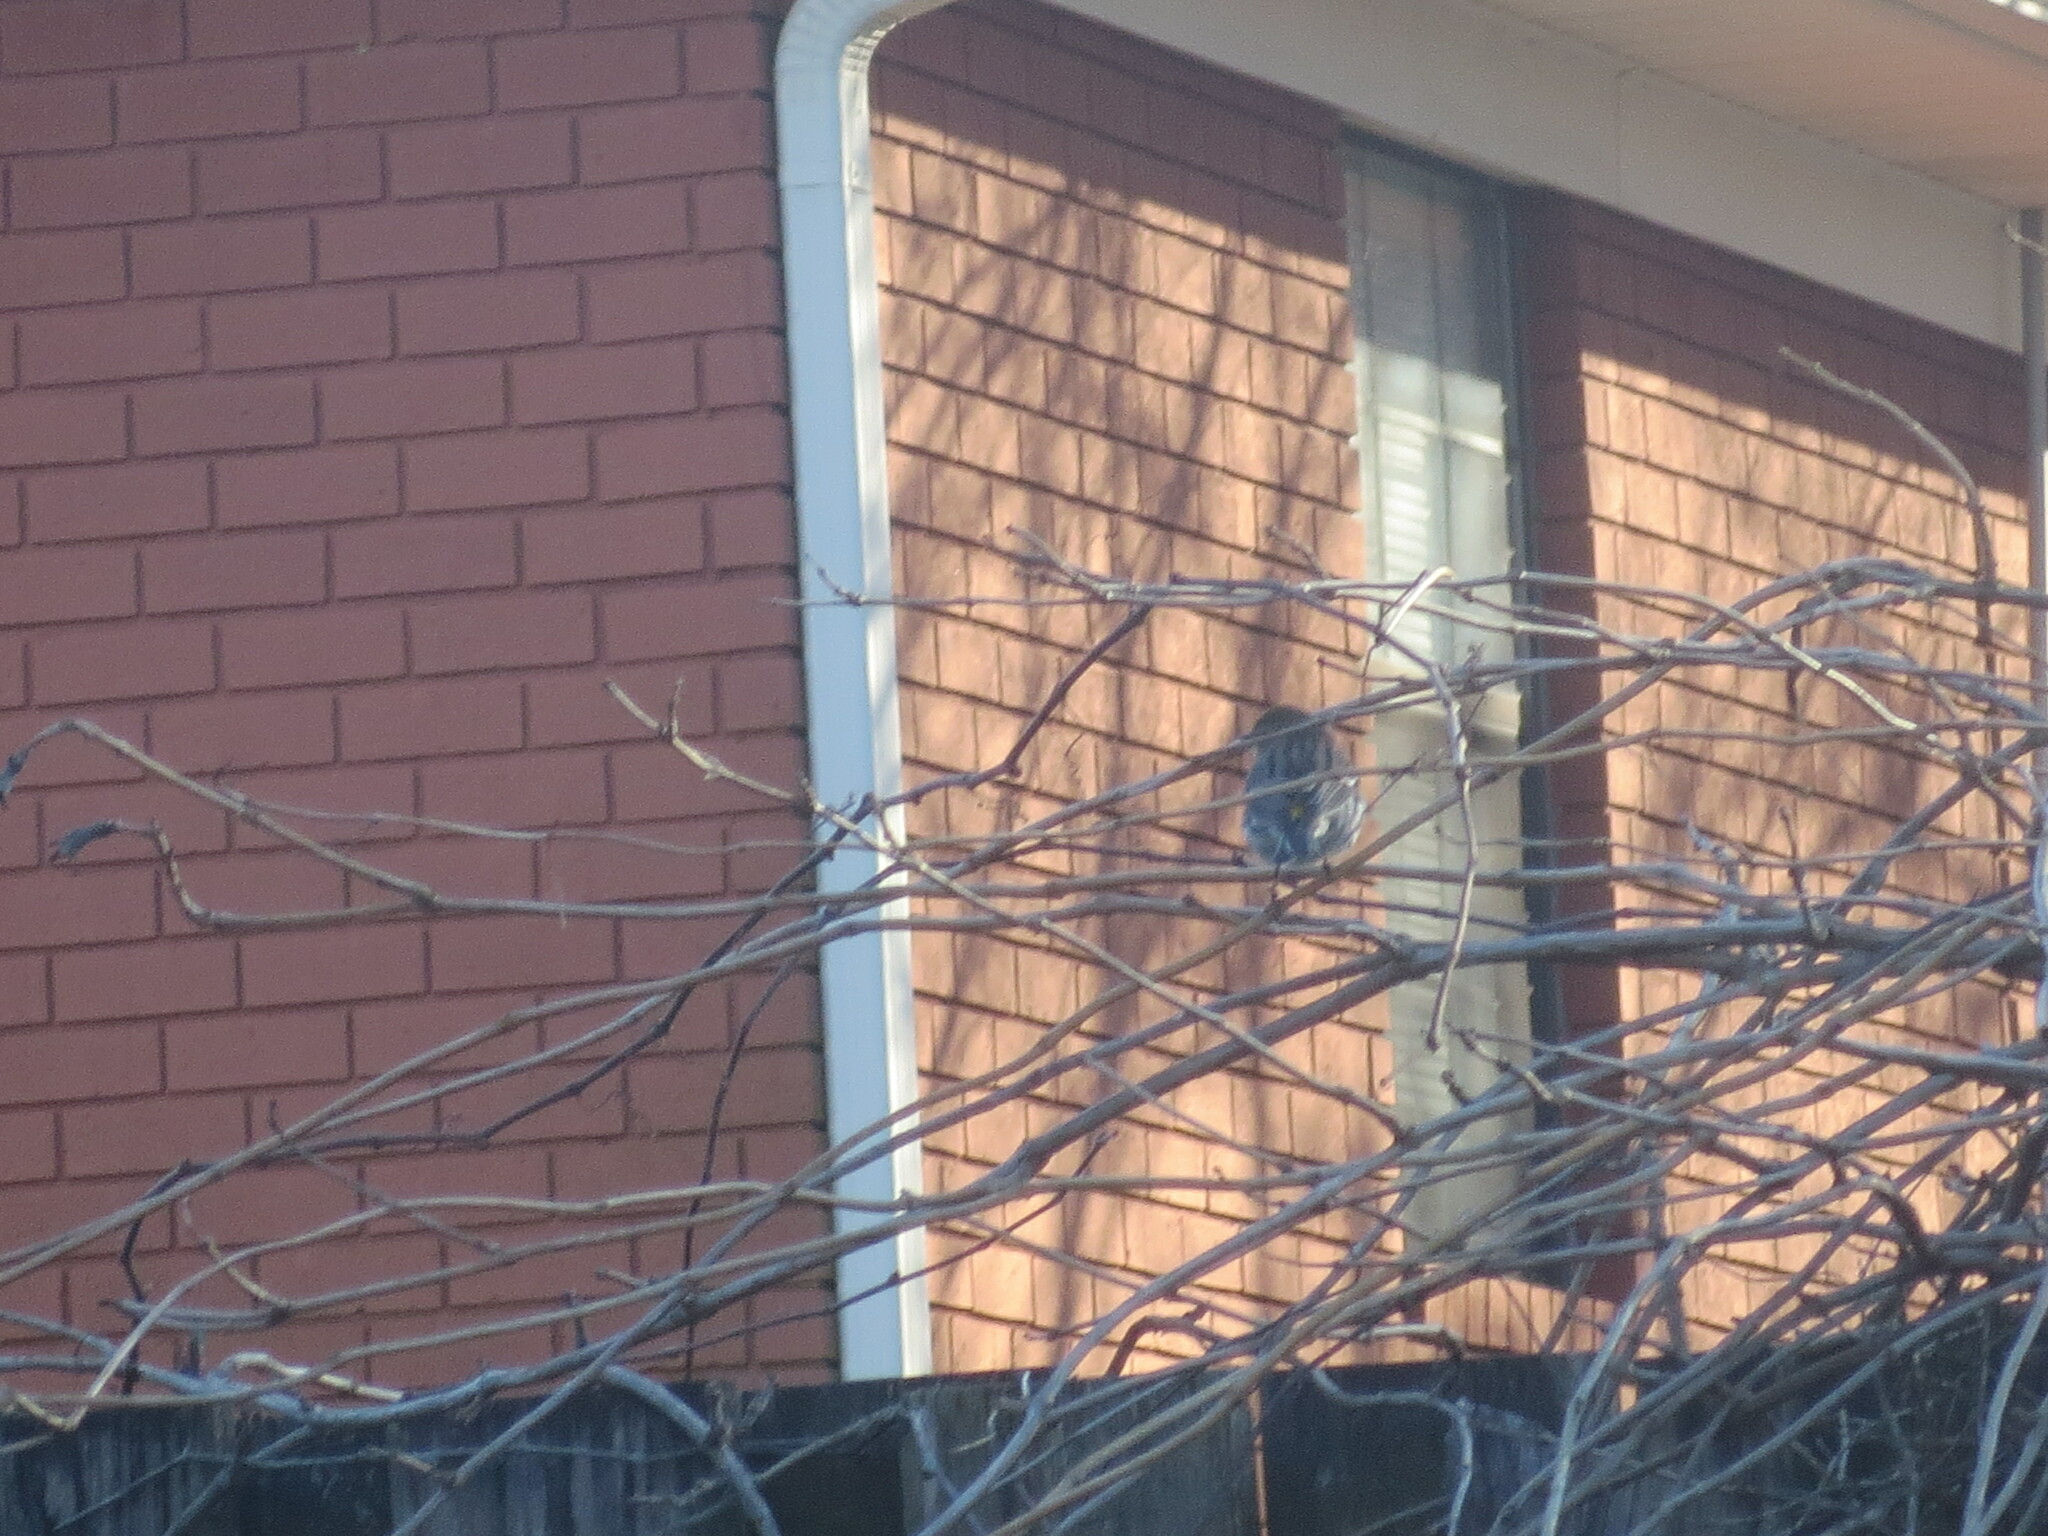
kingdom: Animalia
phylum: Chordata
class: Aves
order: Passeriformes
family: Parulidae
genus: Setophaga
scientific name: Setophaga coronata
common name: Myrtle warbler
